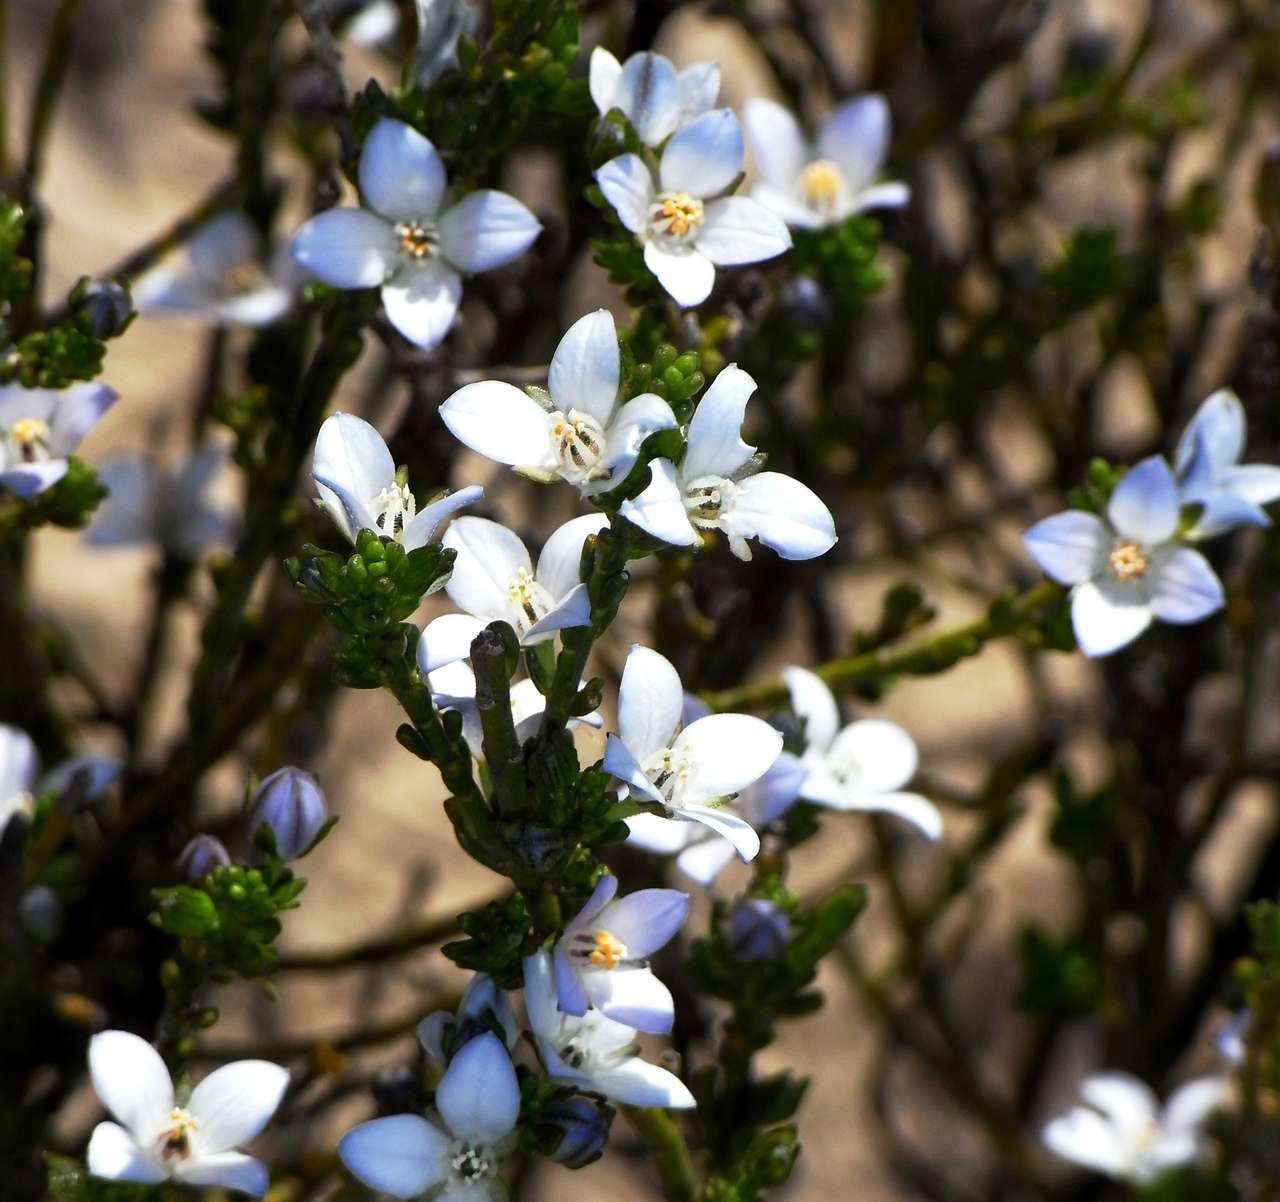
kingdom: Plantae
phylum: Tracheophyta
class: Magnoliopsida
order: Sapindales
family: Rutaceae
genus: Cyanothamnus
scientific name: Cyanothamnus coerulescens
